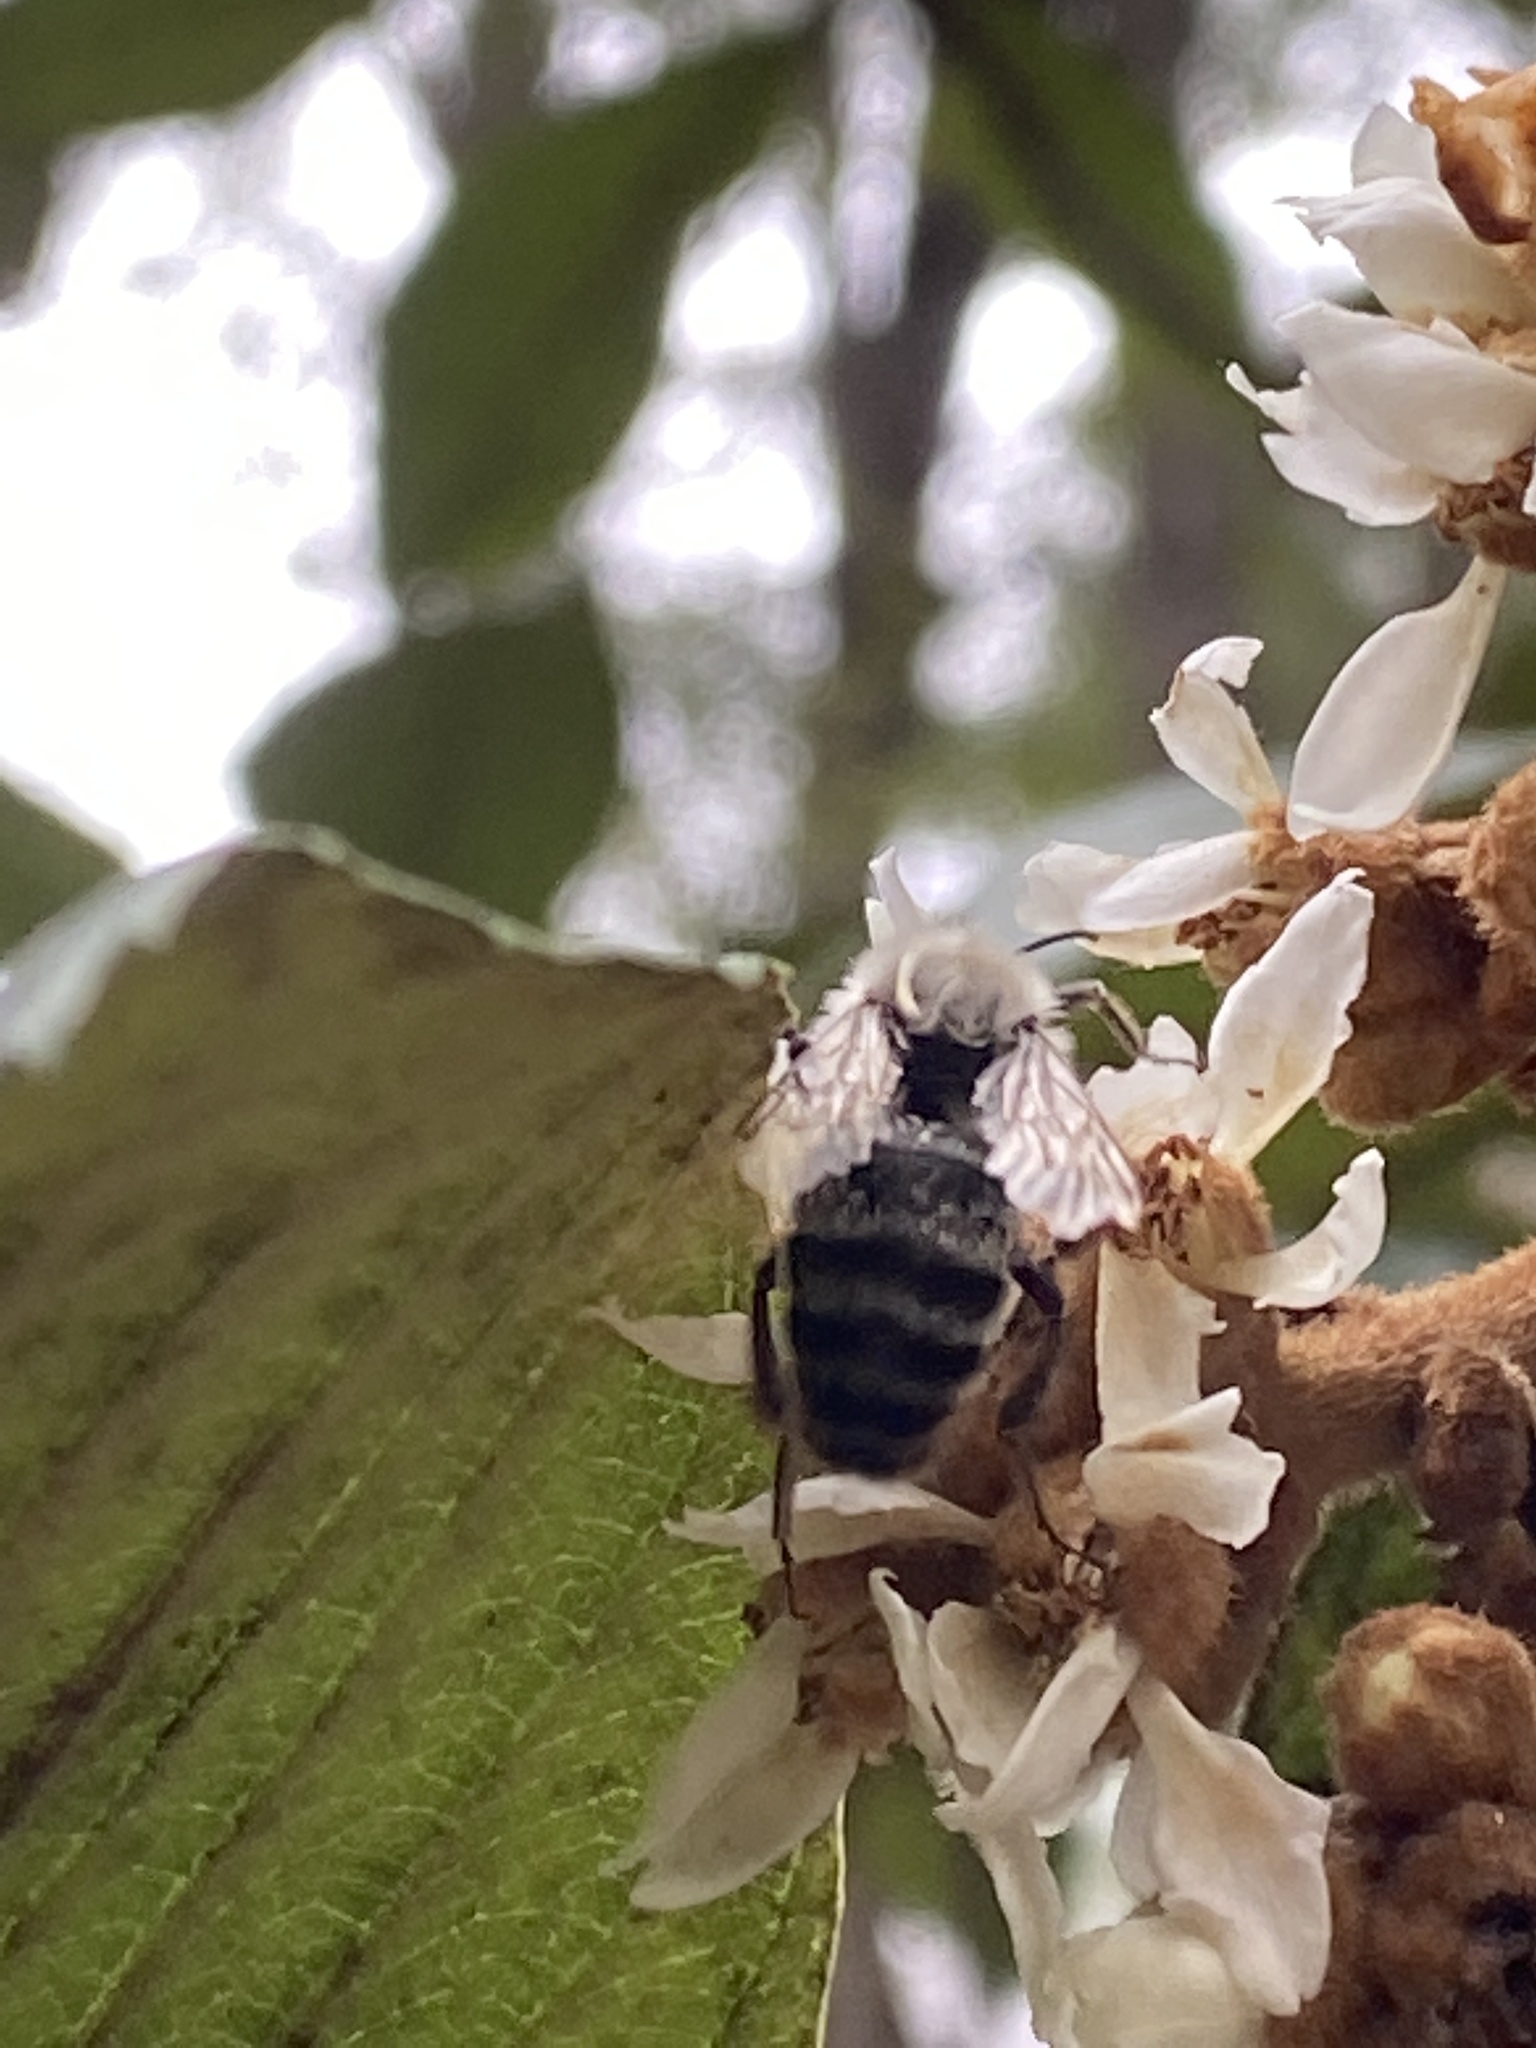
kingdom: Animalia
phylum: Arthropoda
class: Insecta
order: Hymenoptera
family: Apidae
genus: Bombus
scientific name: Bombus impatiens
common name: Common eastern bumble bee
